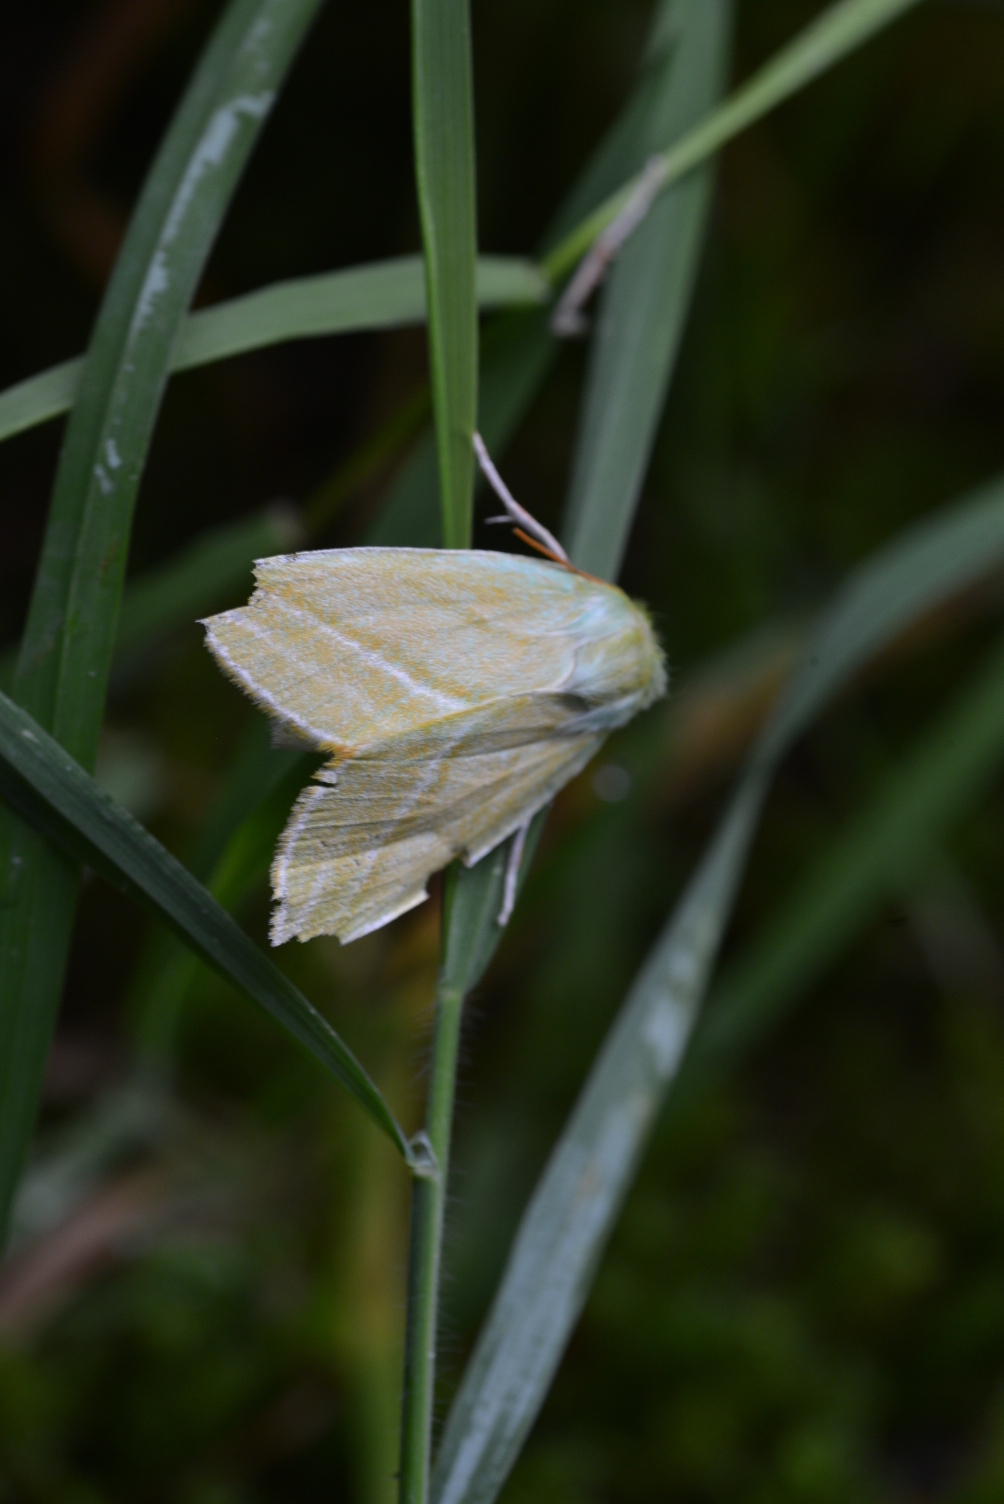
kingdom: Animalia
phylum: Arthropoda
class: Insecta
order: Lepidoptera
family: Nolidae
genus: Pseudoips
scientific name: Pseudoips prasinana
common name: Green silver-lines
